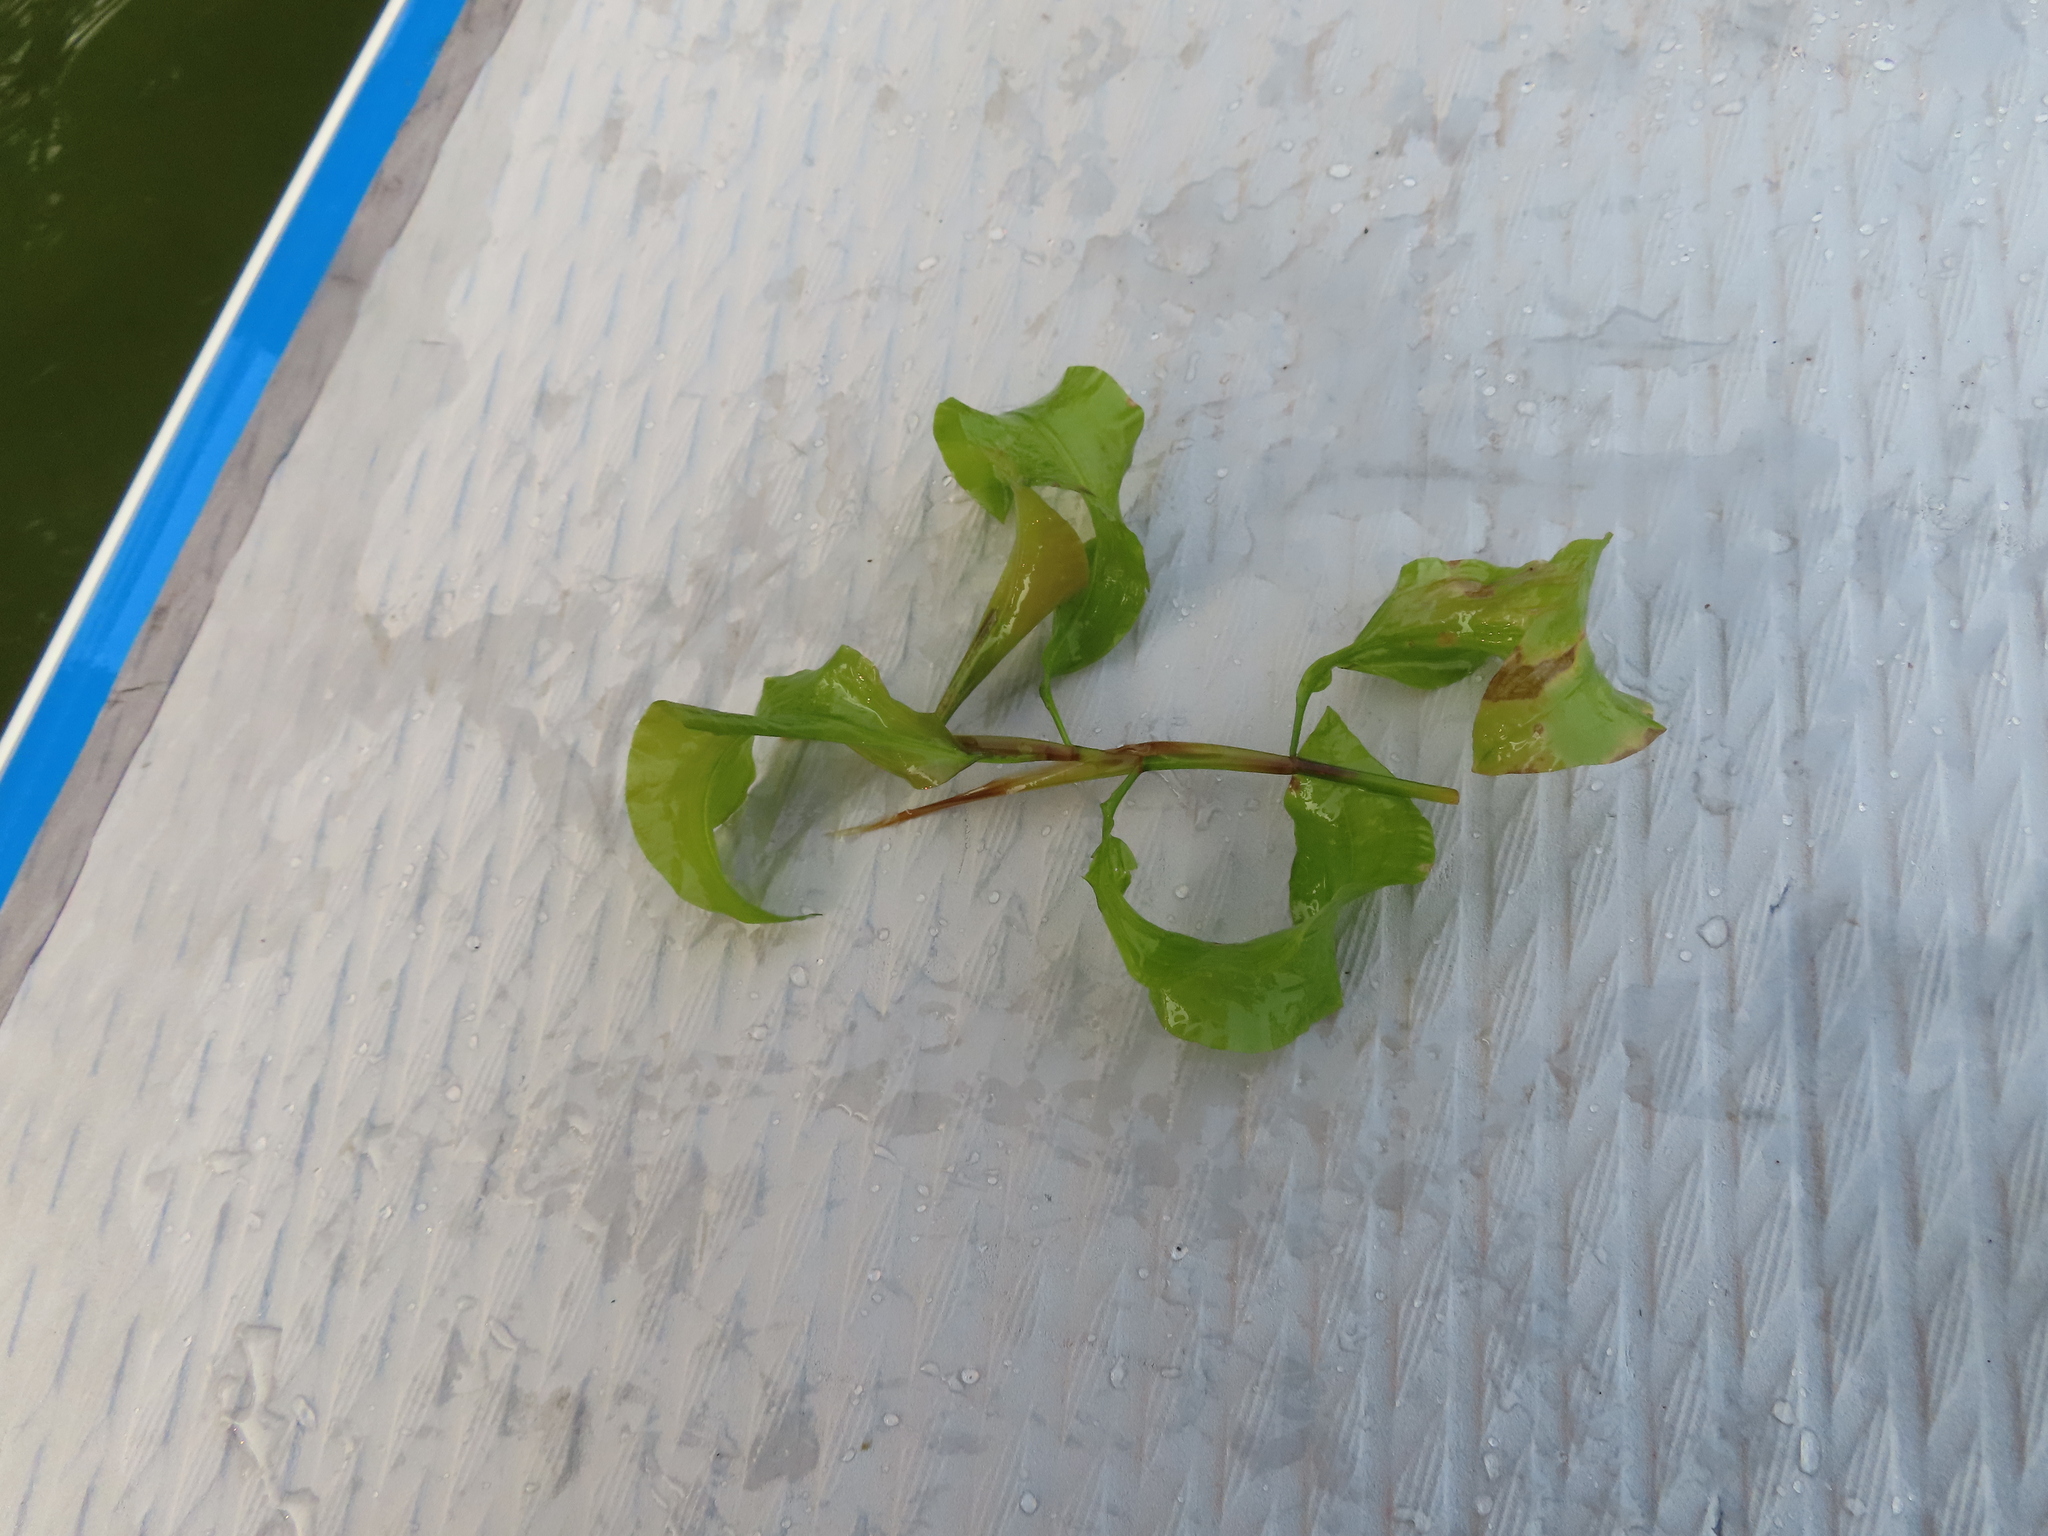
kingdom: Plantae
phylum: Tracheophyta
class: Liliopsida
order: Alismatales
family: Potamogetonaceae
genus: Potamogeton
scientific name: Potamogeton amplifolius
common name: Broad-leaved pondweed
